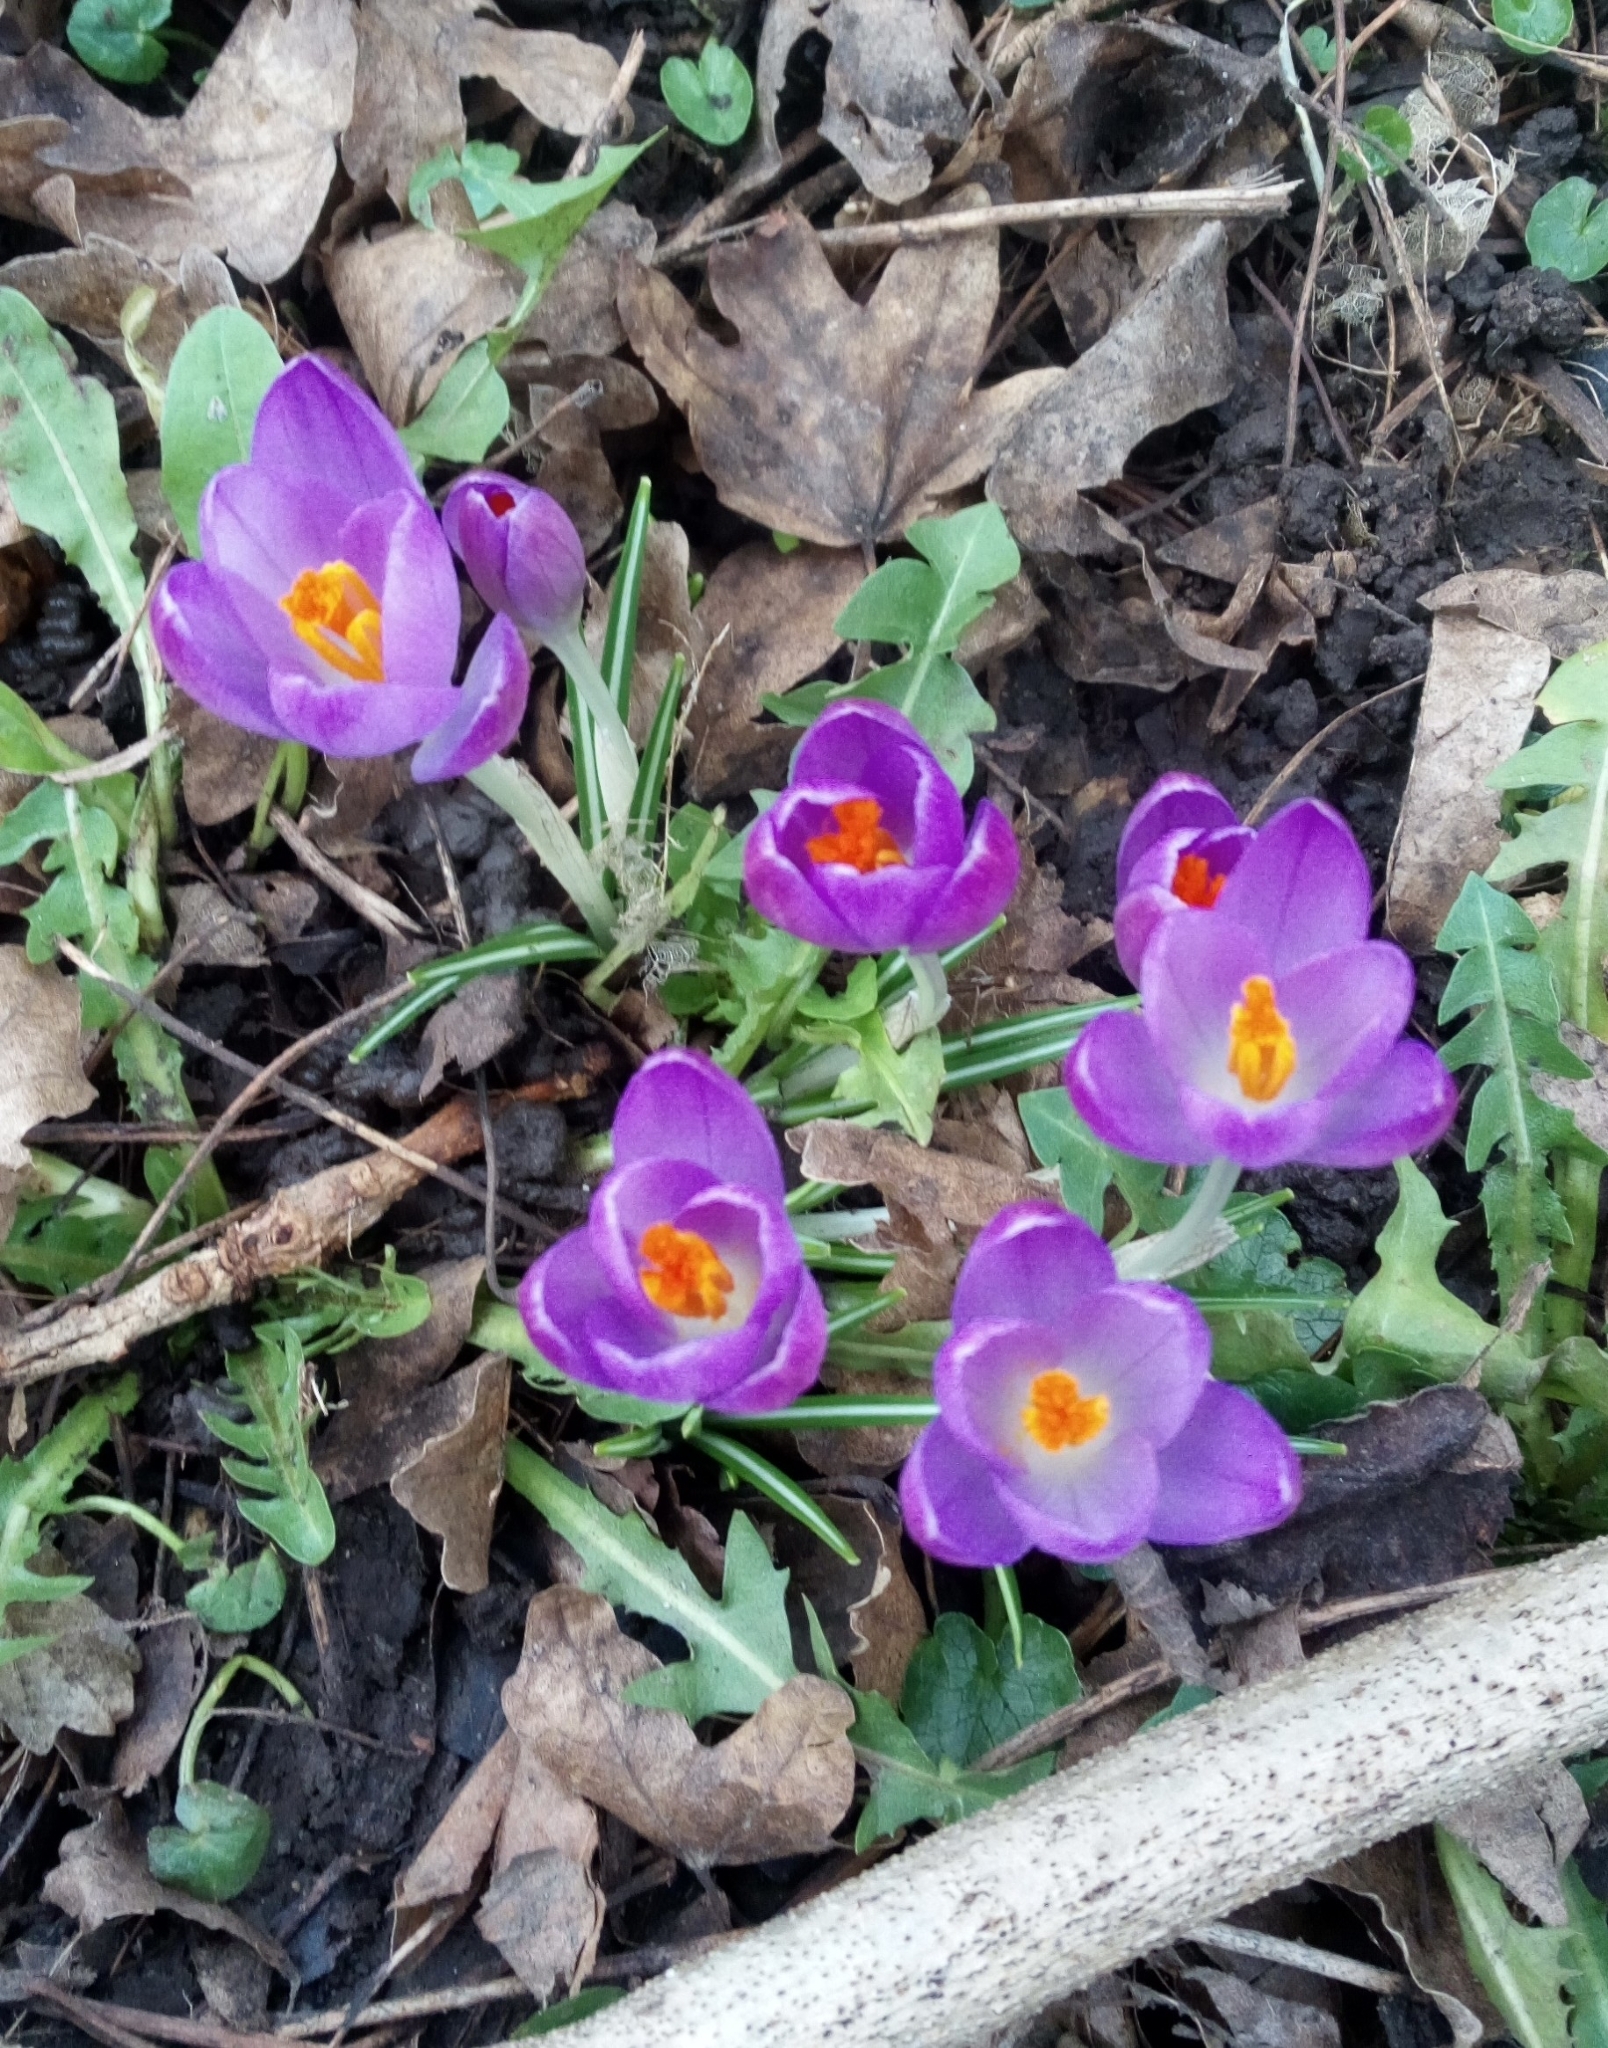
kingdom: Plantae
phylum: Tracheophyta
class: Liliopsida
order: Asparagales
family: Iridaceae
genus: Crocus
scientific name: Crocus tommasinianus
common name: Early crocus
